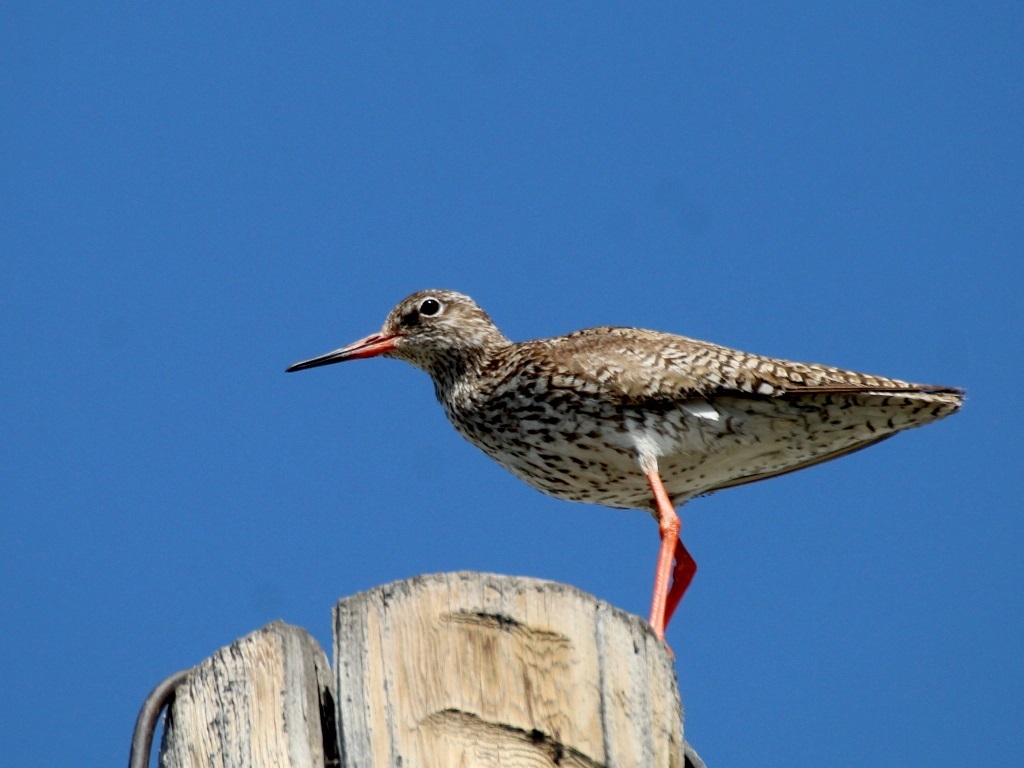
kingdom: Animalia
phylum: Chordata
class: Aves
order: Charadriiformes
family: Scolopacidae
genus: Tringa
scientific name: Tringa totanus
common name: Common redshank
